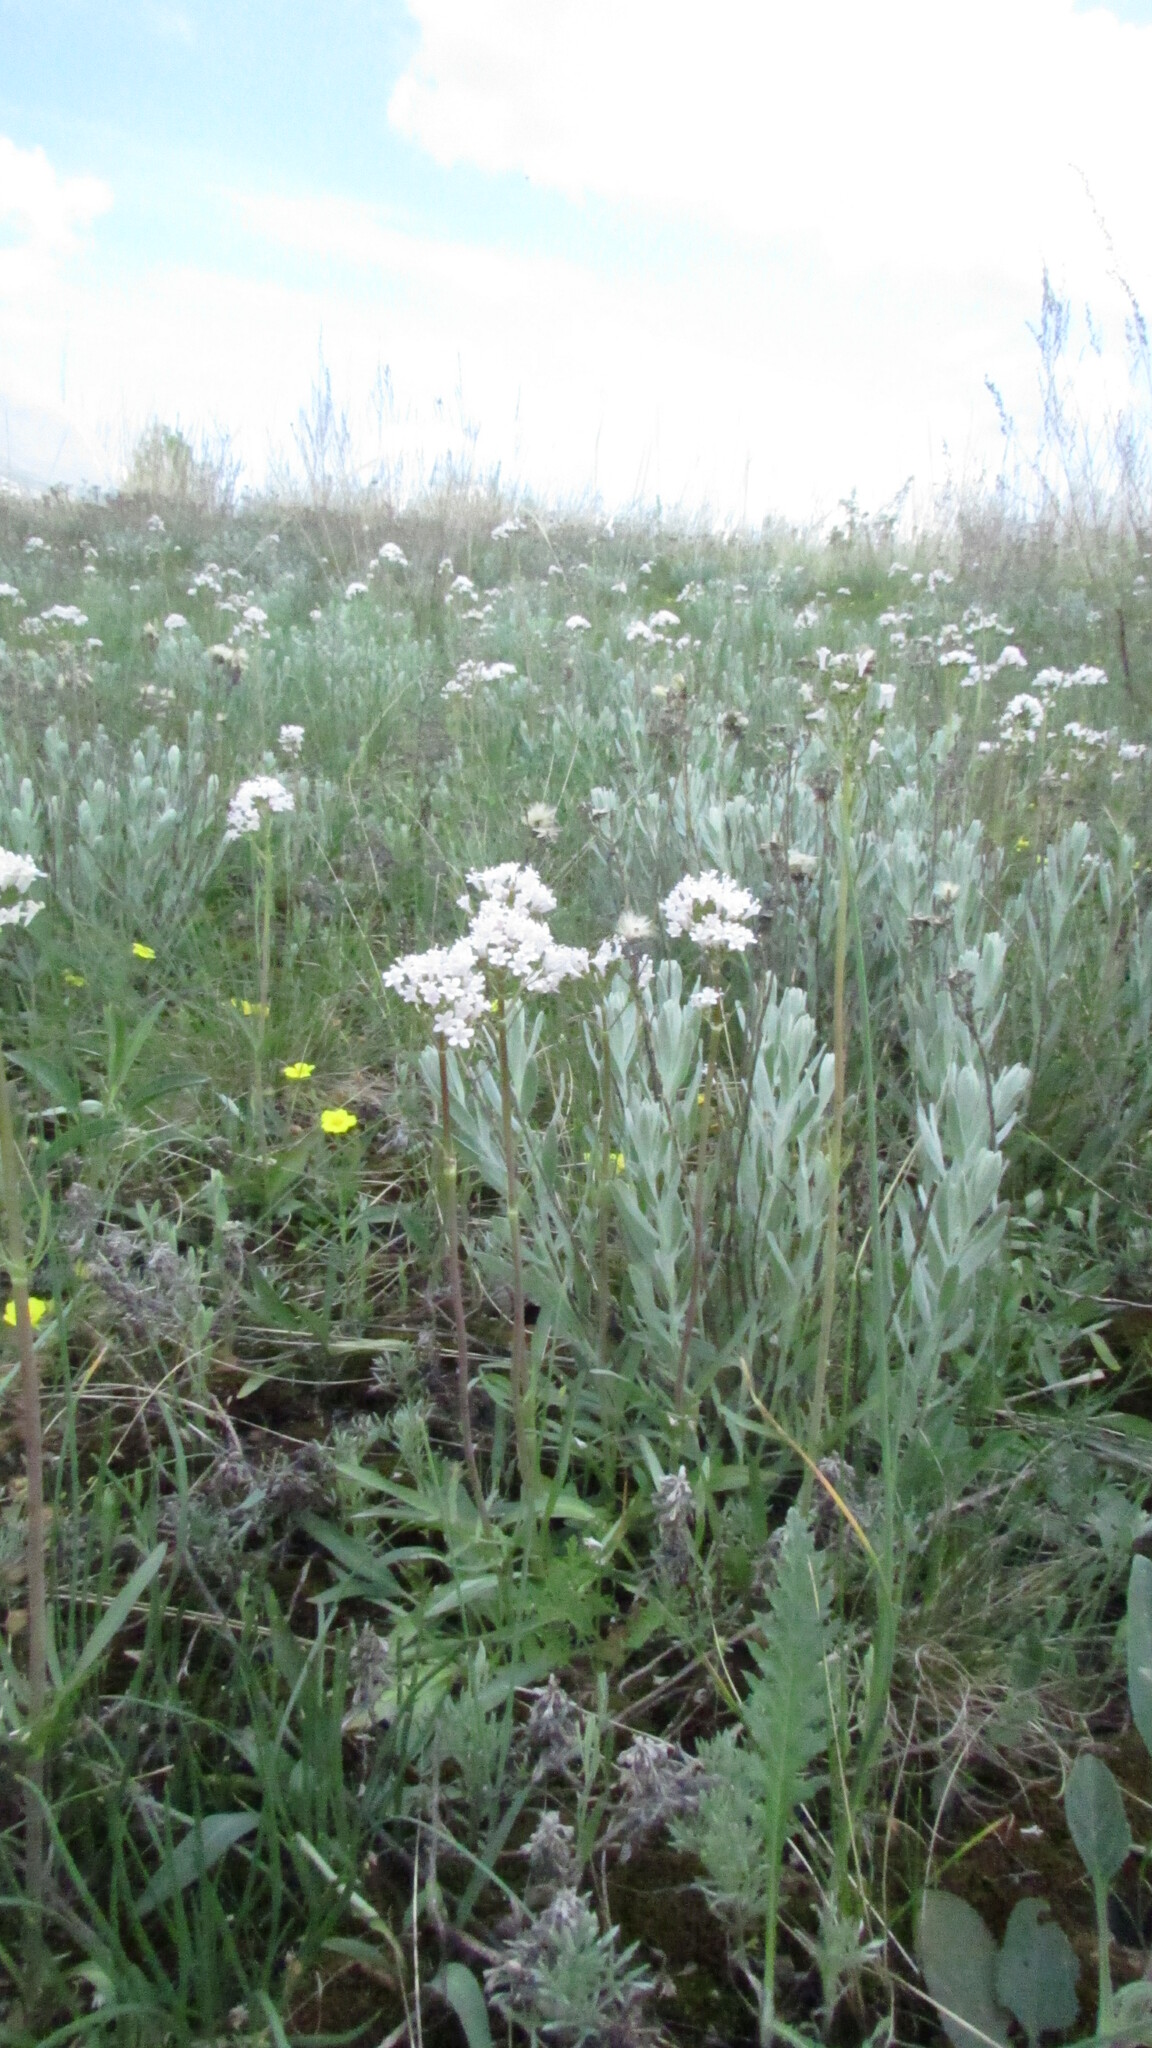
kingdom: Plantae
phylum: Tracheophyta
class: Magnoliopsida
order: Dipsacales
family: Caprifoliaceae
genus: Valeriana
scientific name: Valeriana tuberosa
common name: Tuberous valerian
